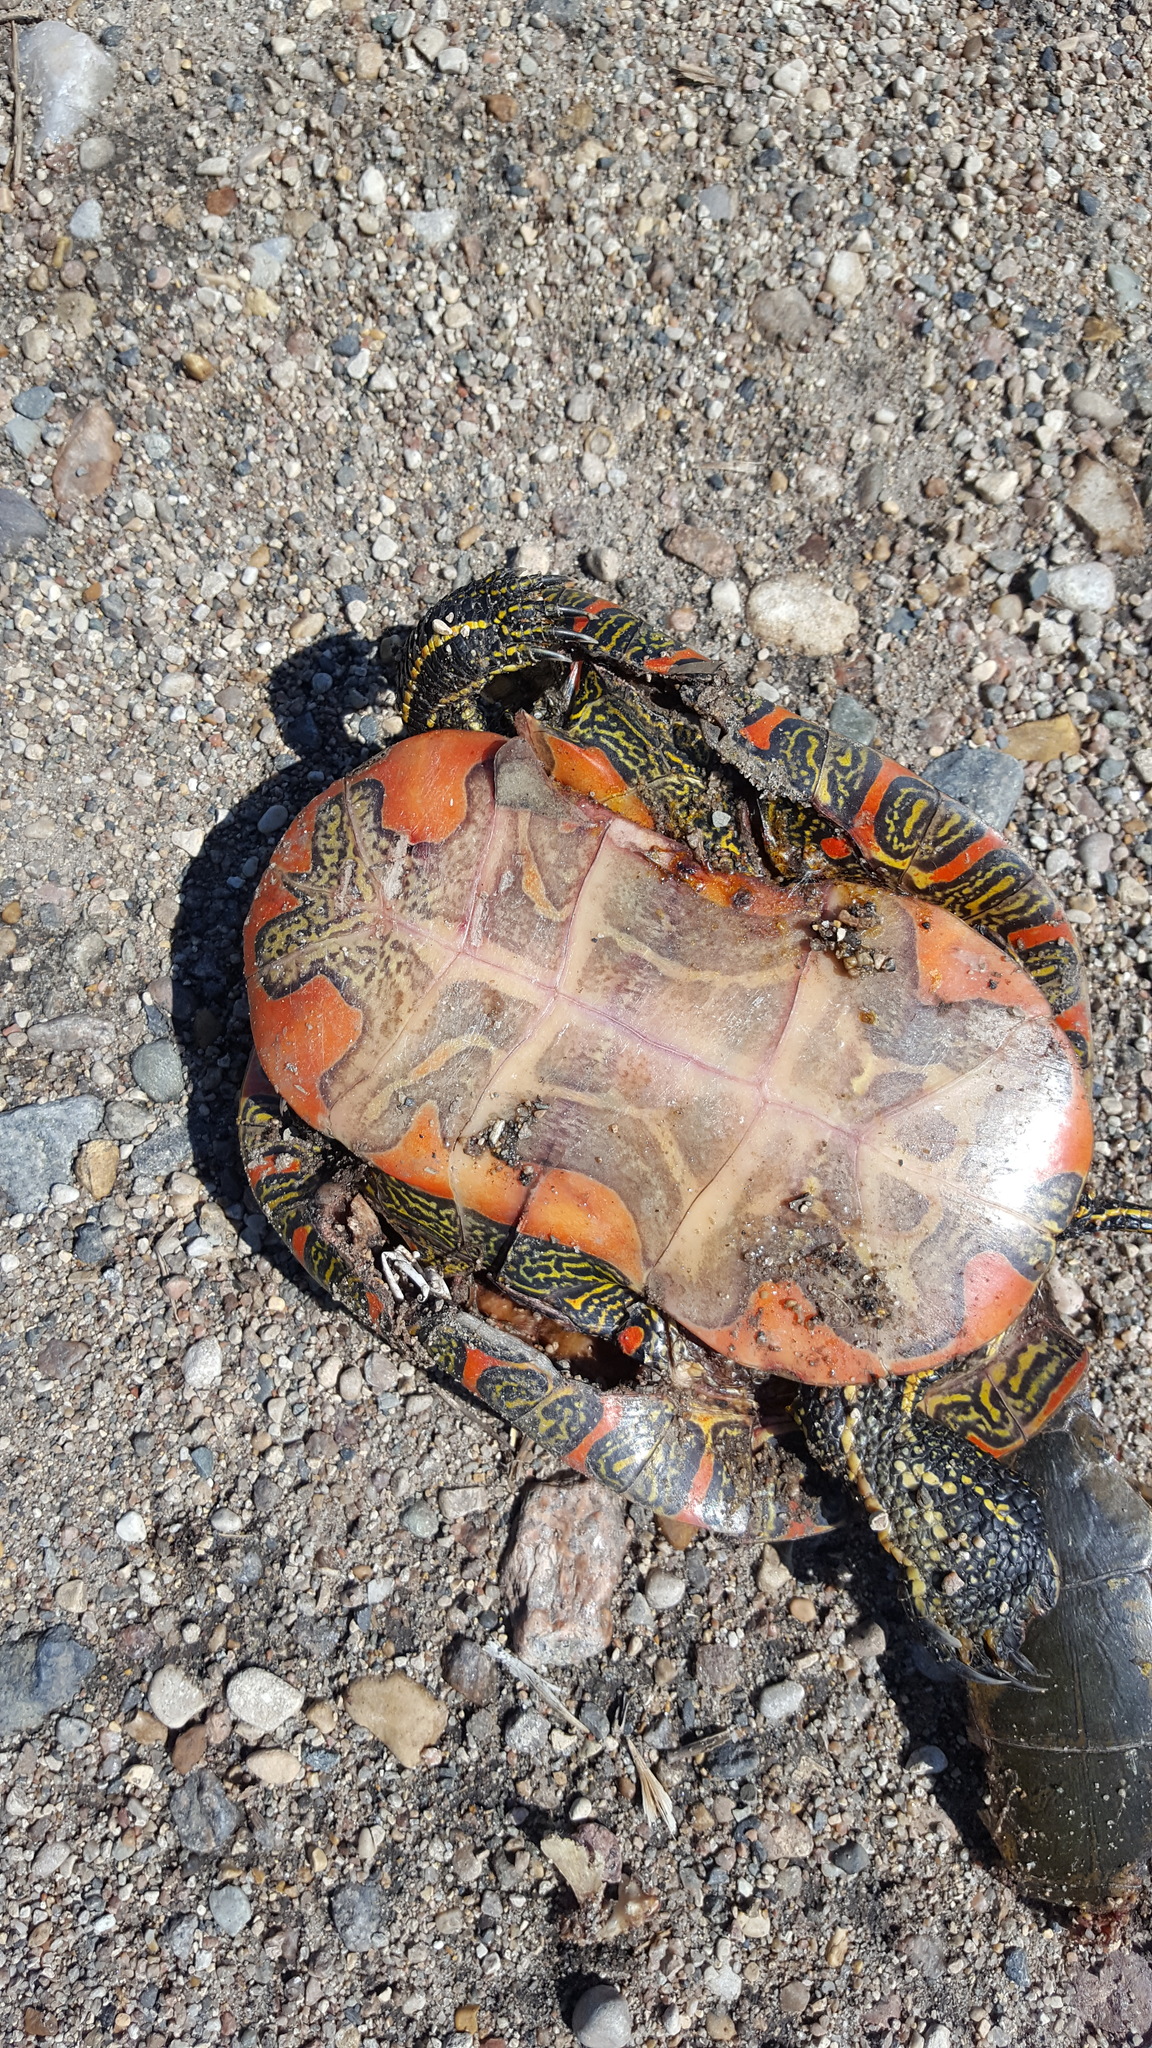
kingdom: Animalia
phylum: Chordata
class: Testudines
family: Emydidae
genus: Chrysemys
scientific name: Chrysemys picta
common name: Painted turtle
